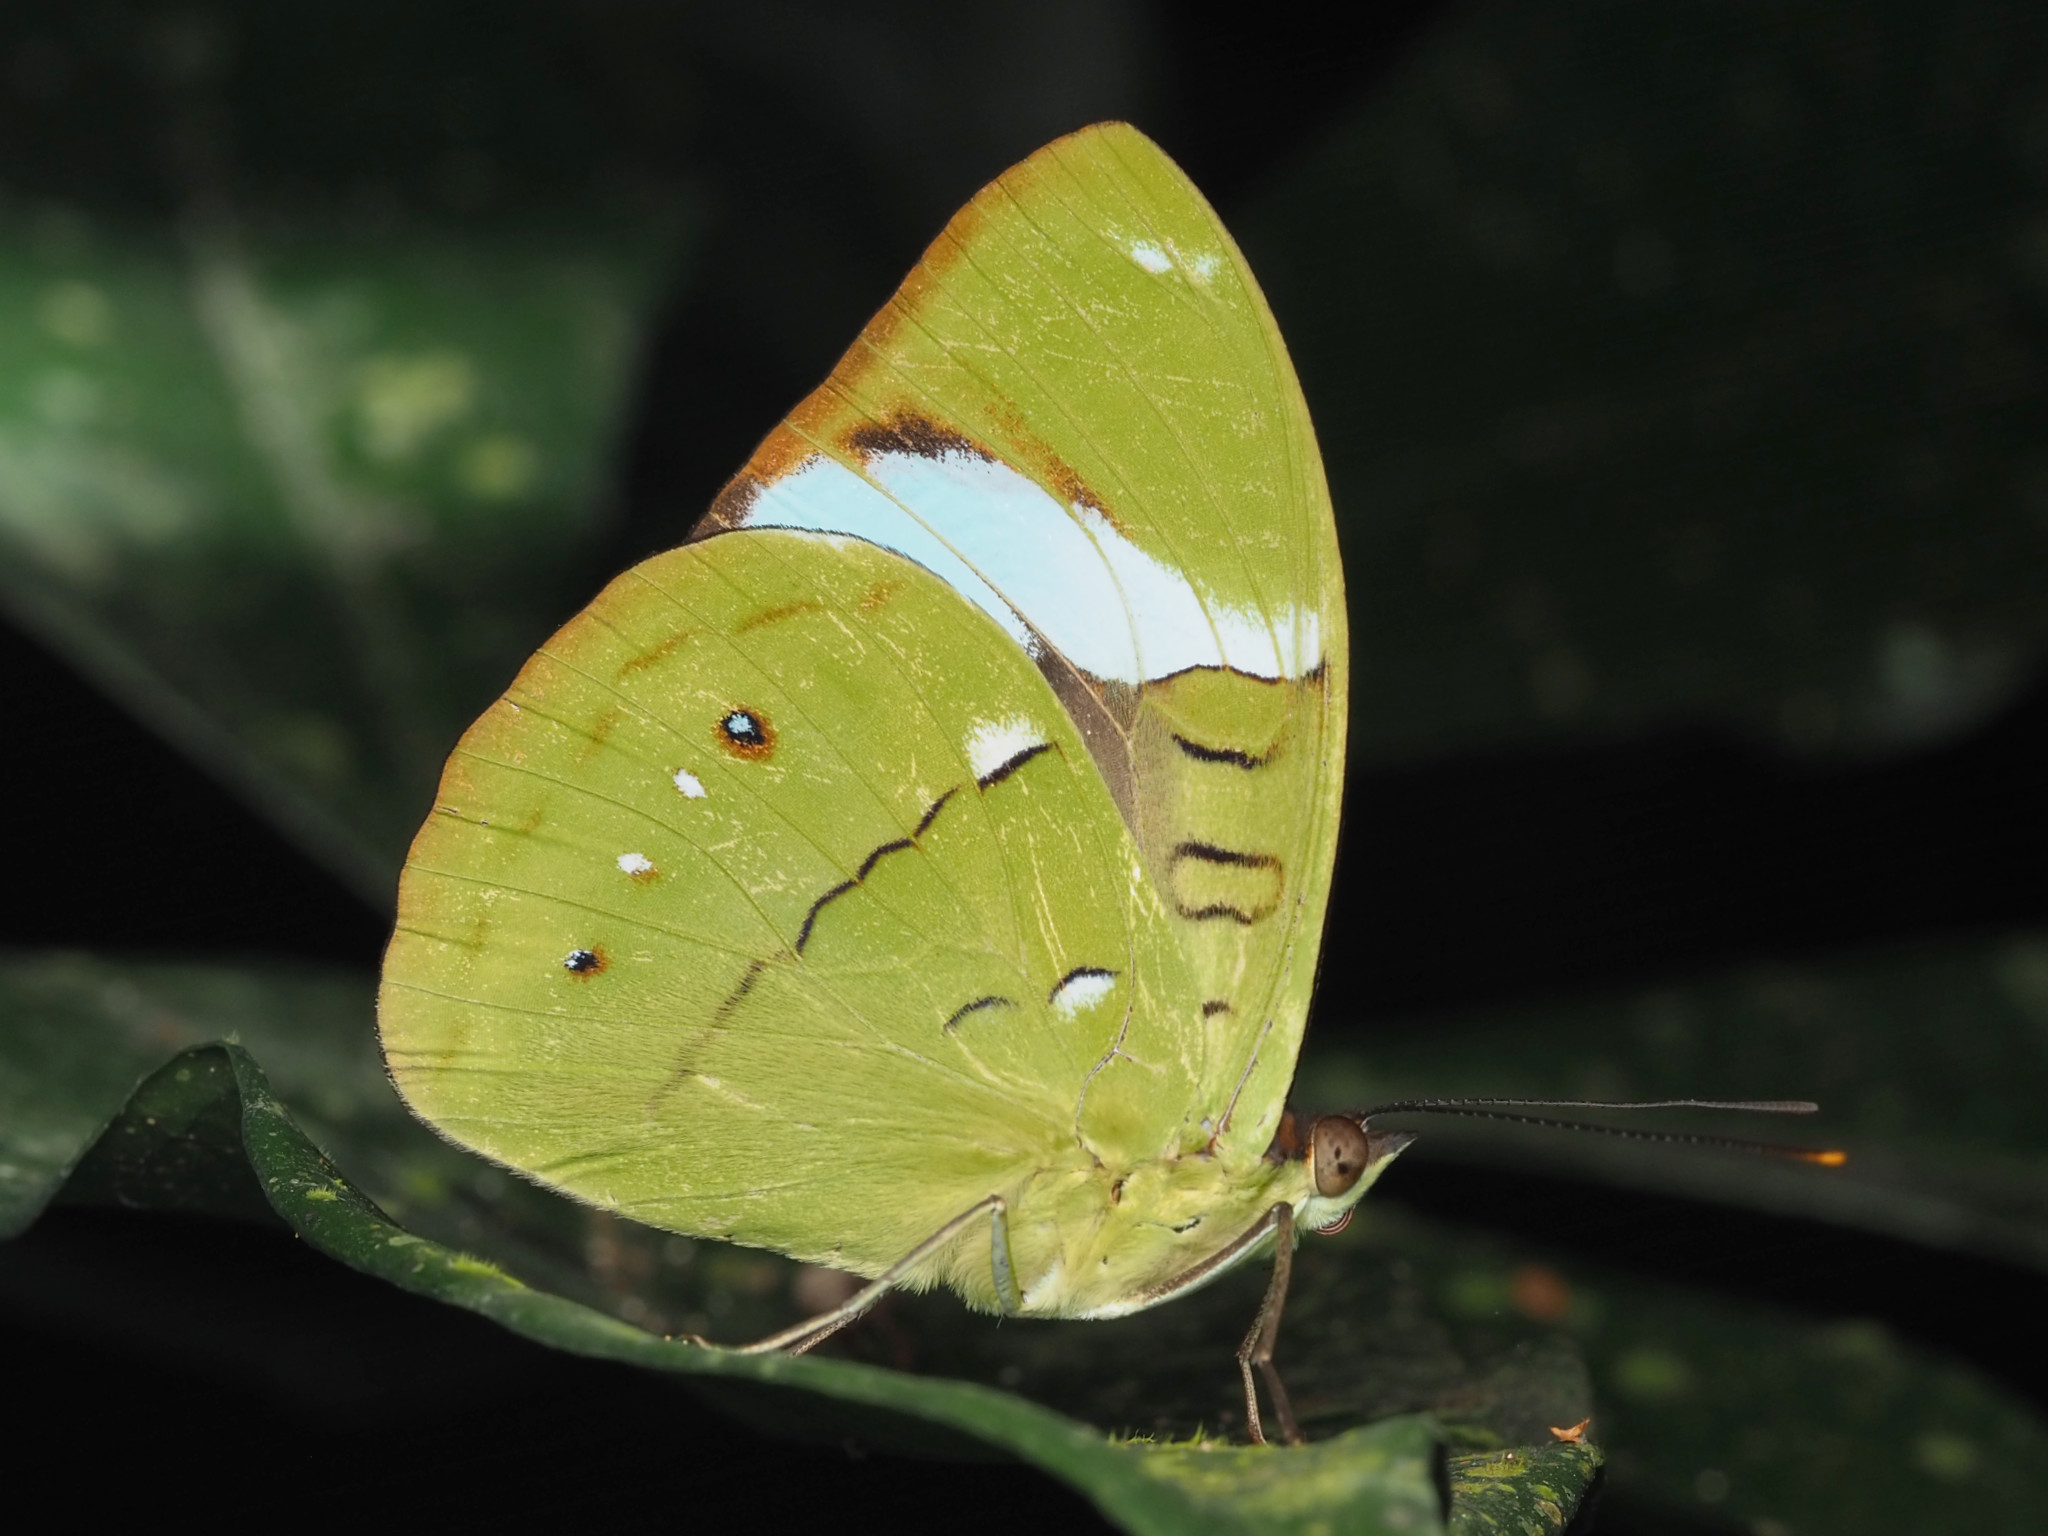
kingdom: Animalia
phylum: Arthropoda
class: Insecta
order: Lepidoptera
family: Nymphalidae
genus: Nessaea
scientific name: Nessaea aglaura
